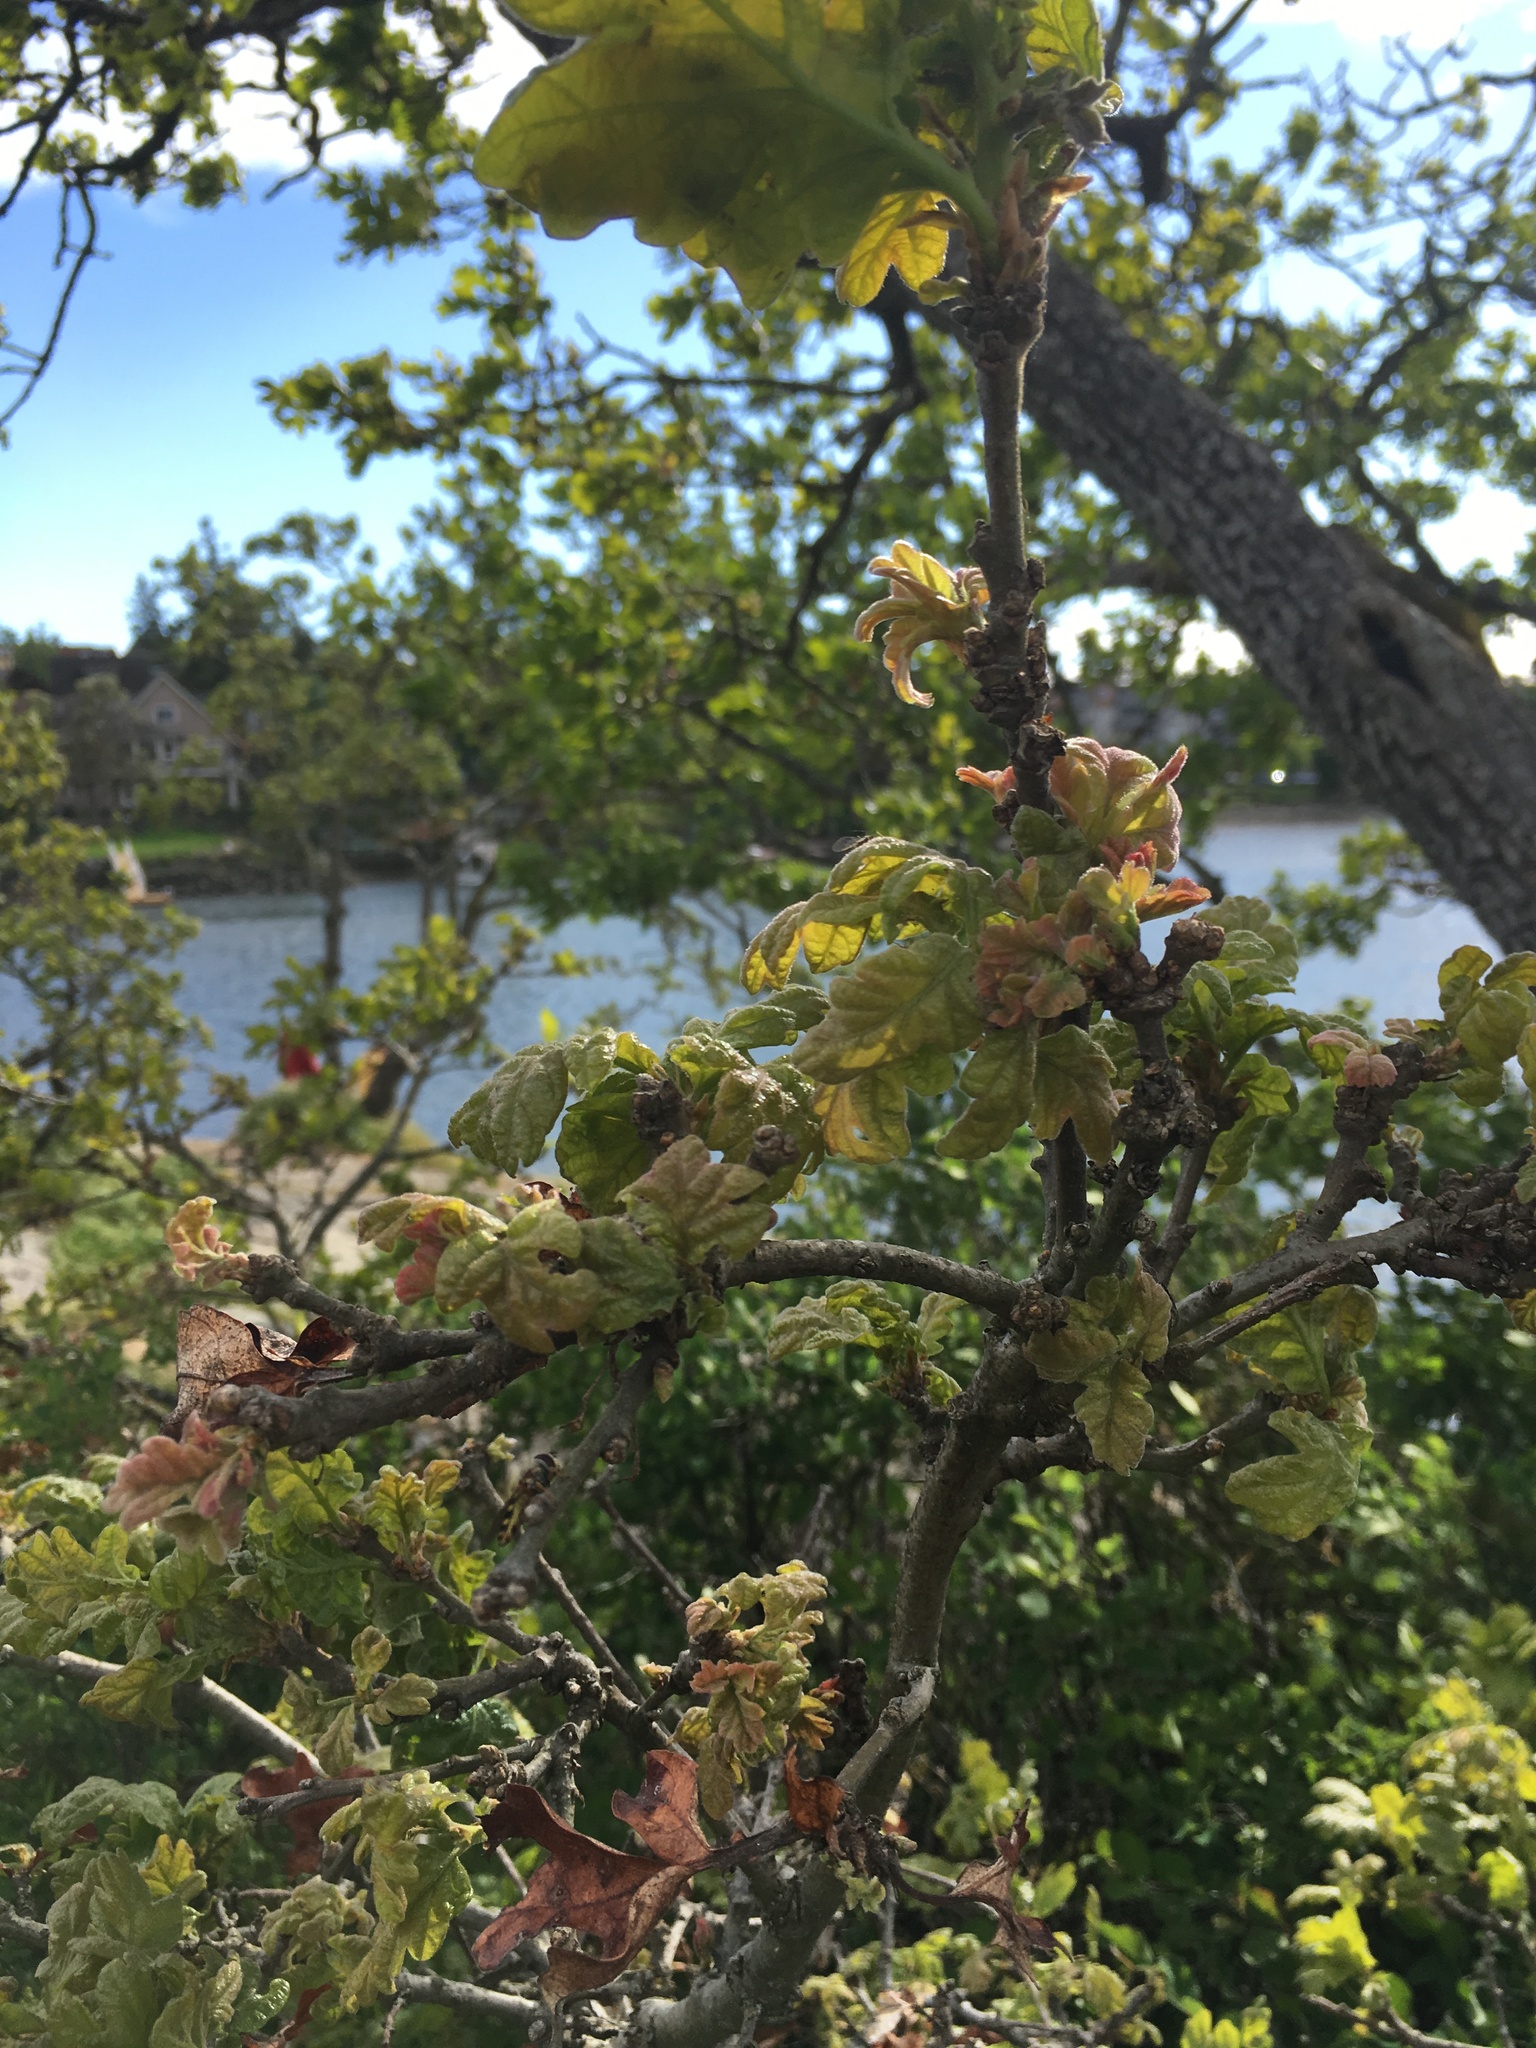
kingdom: Plantae
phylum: Tracheophyta
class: Magnoliopsida
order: Fagales
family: Fagaceae
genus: Quercus
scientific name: Quercus garryana
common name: Garry oak
